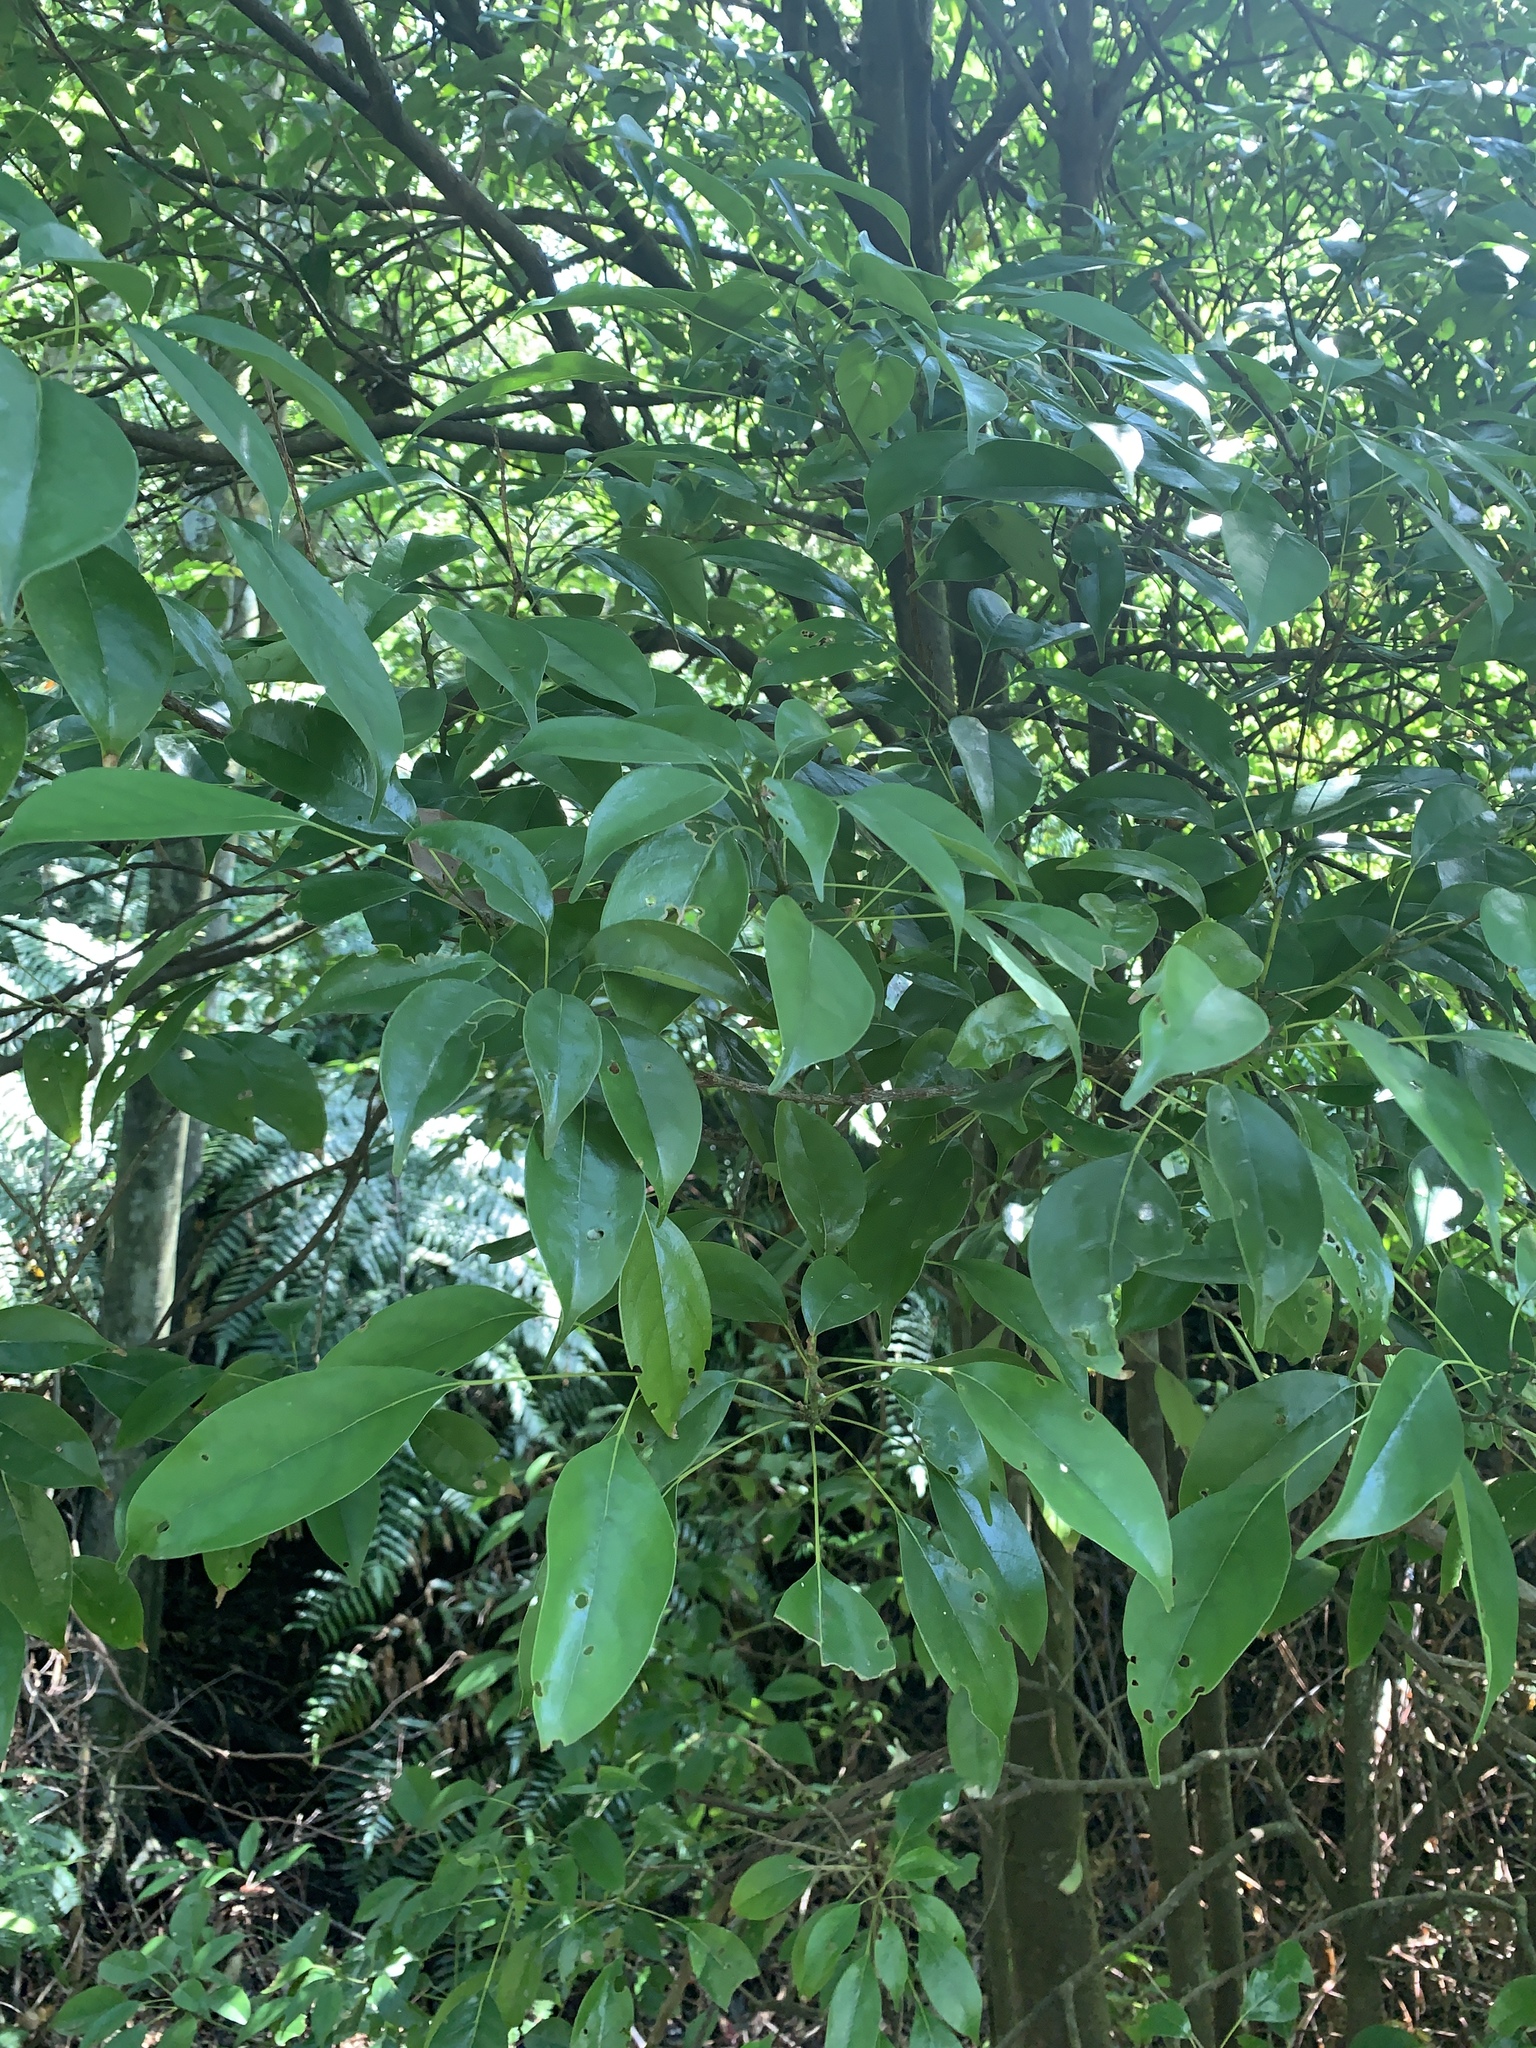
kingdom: Plantae
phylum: Tracheophyta
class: Magnoliopsida
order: Proteales
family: Sabiaceae
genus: Meliosma
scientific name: Meliosma squamulata
